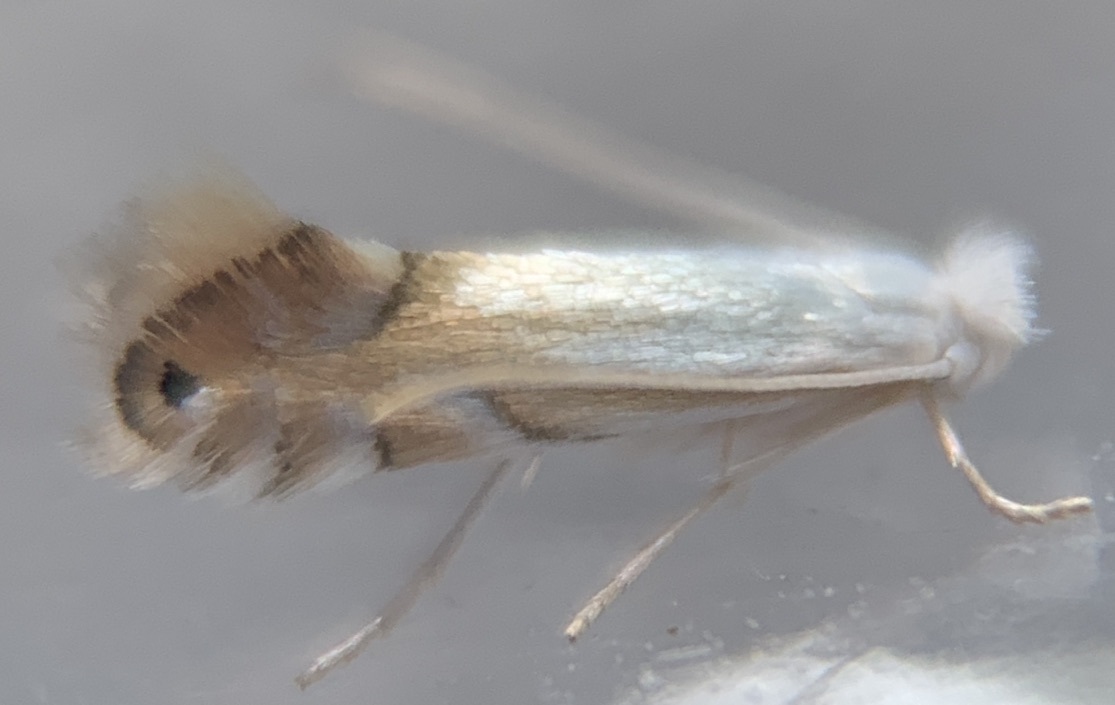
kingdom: Animalia
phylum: Arthropoda
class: Insecta
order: Lepidoptera
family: Gracillariidae
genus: Phyllonorycter
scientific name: Phyllonorycter lucidicostella
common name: Lesser maple leaf blotch miner moth
